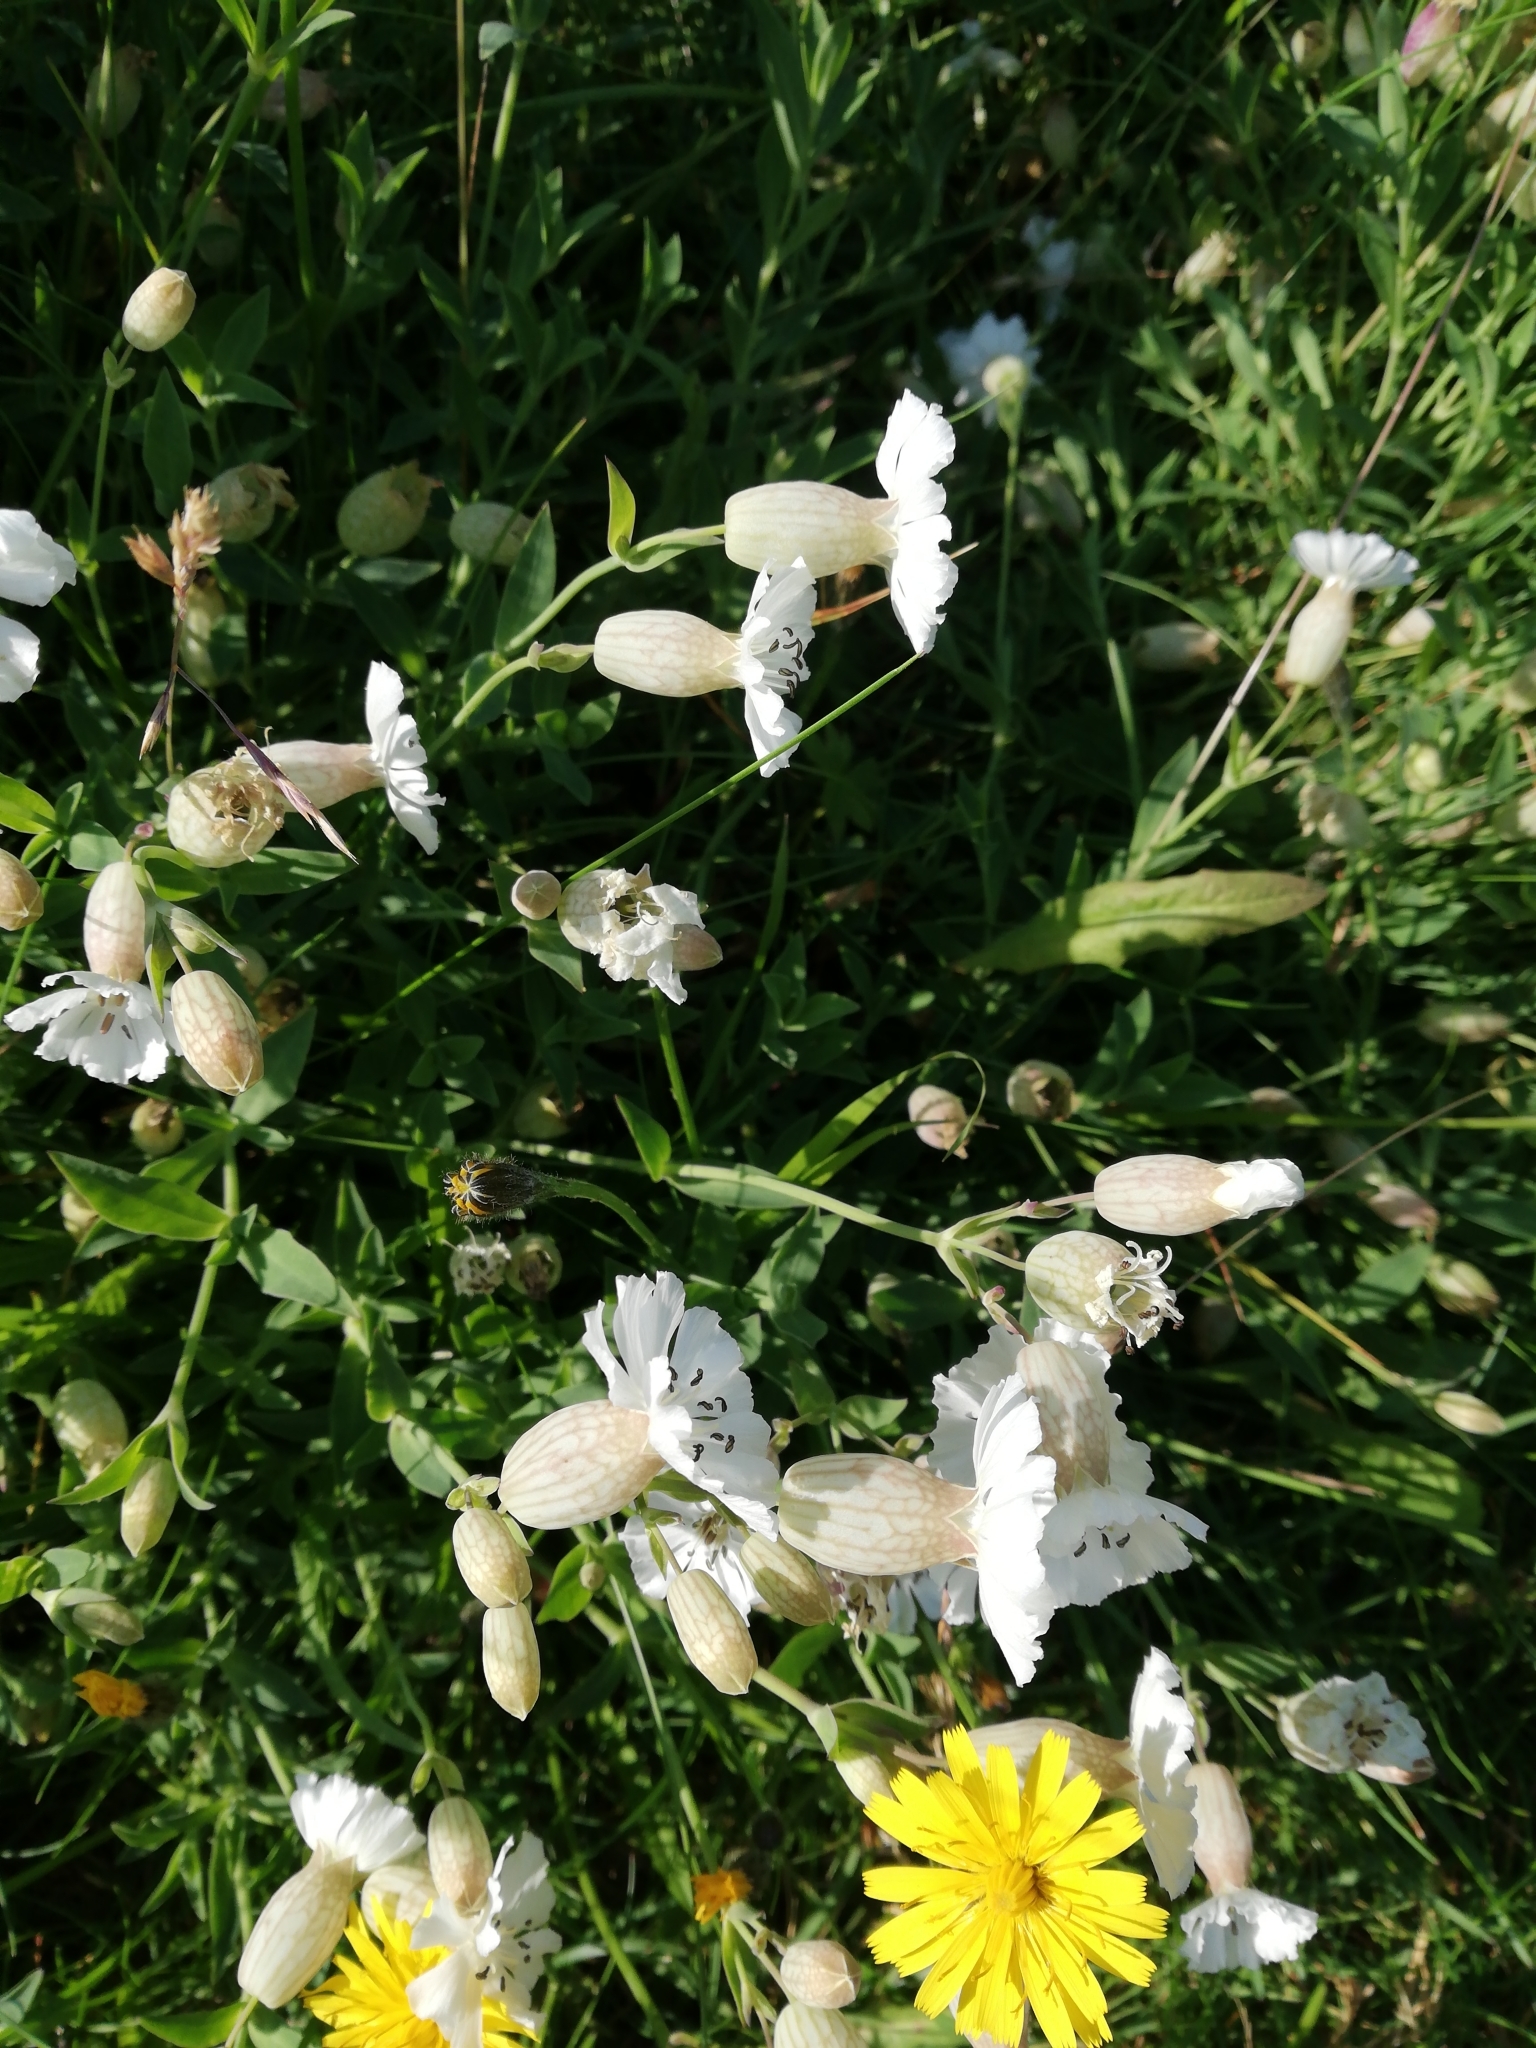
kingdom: Plantae
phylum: Tracheophyta
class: Magnoliopsida
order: Caryophyllales
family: Caryophyllaceae
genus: Silene
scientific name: Silene uniflora
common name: Sea campion
